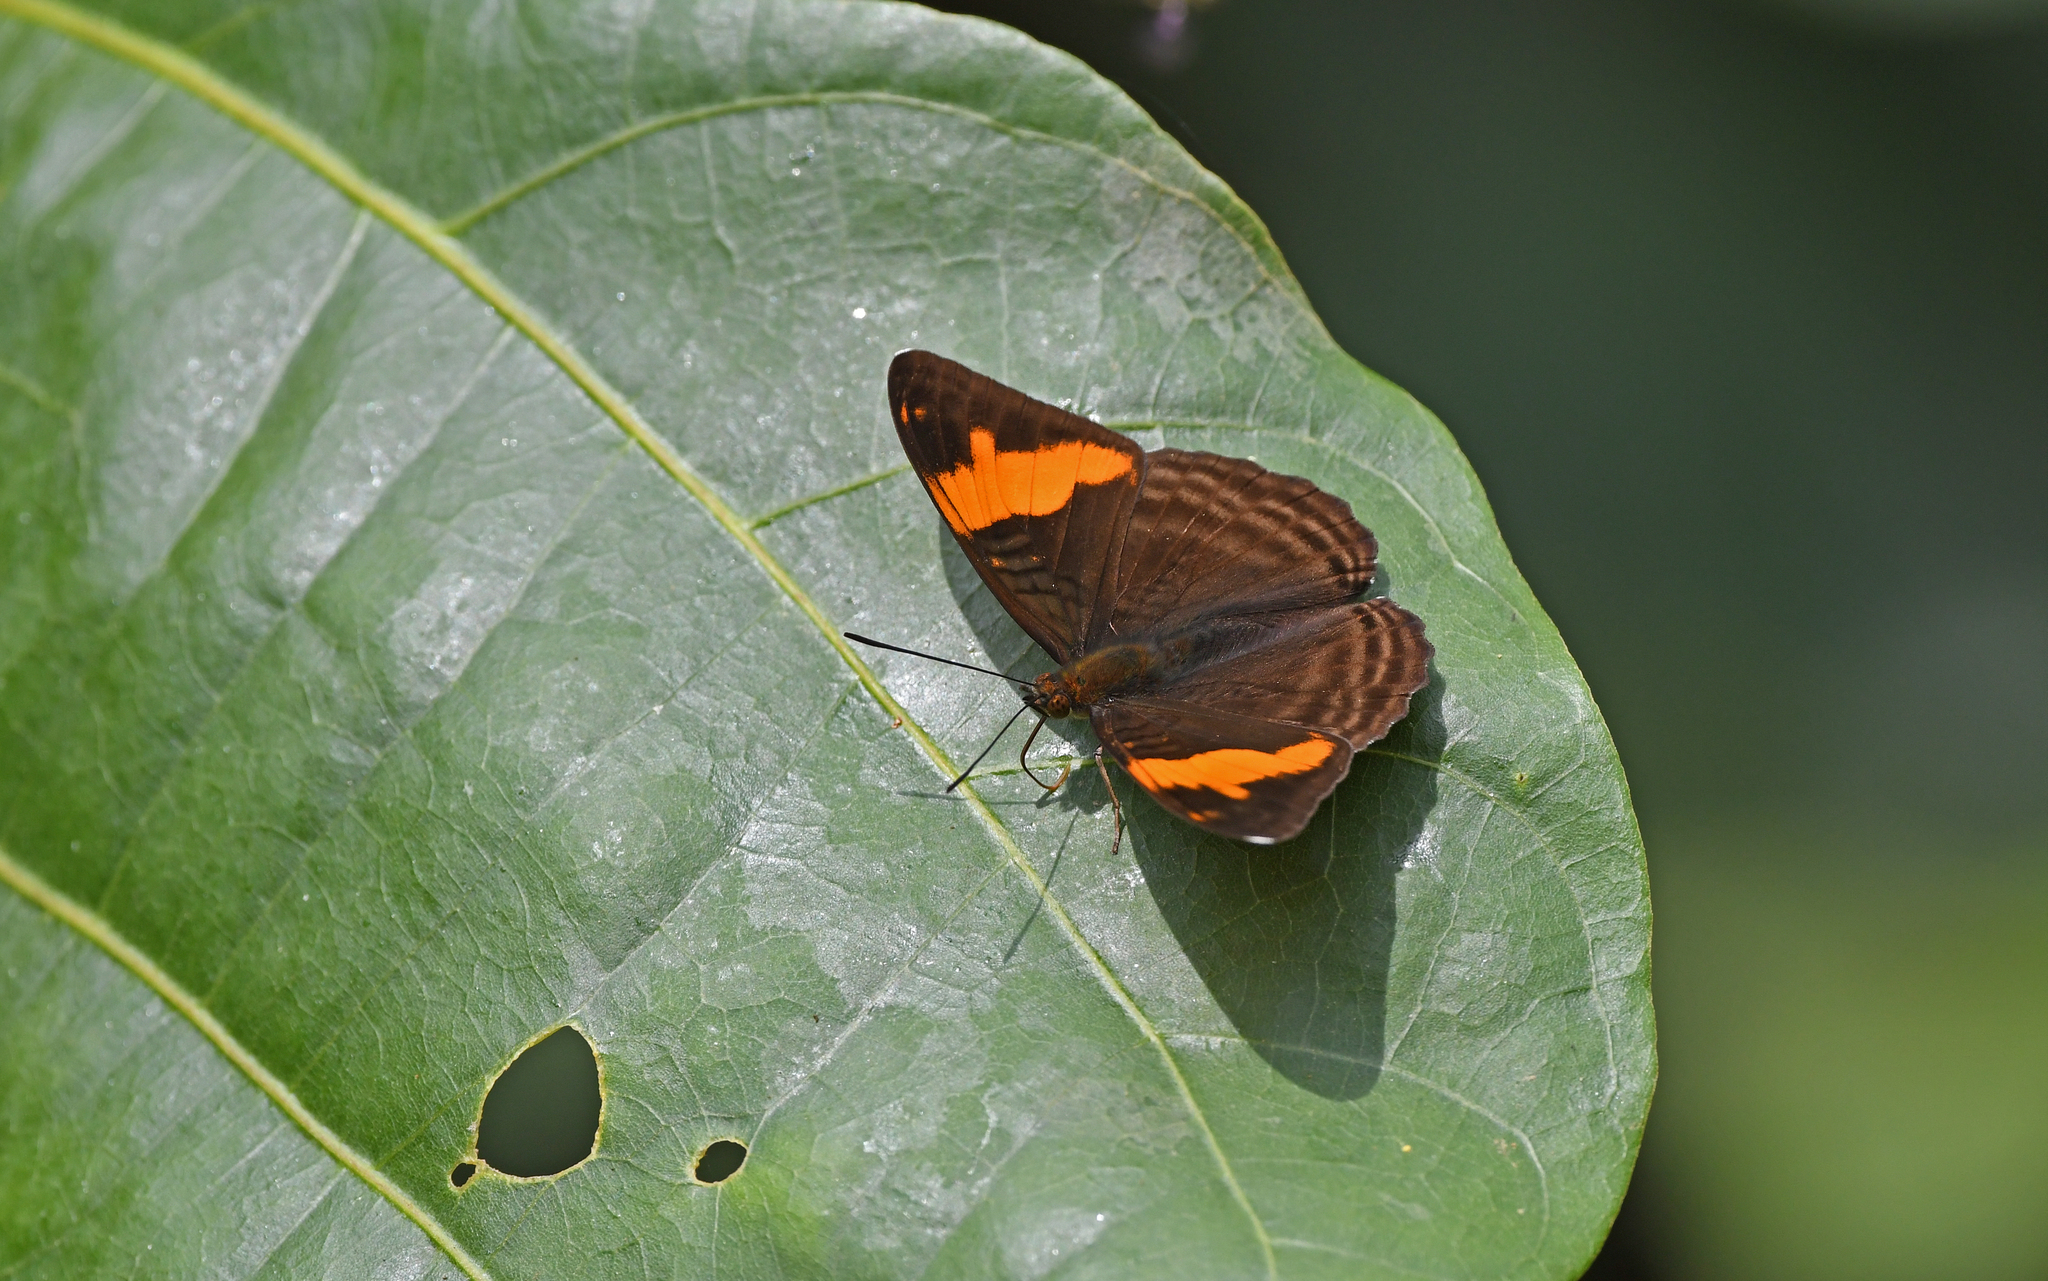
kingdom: Animalia
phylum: Arthropoda
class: Insecta
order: Lepidoptera
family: Nymphalidae
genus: Limenitis
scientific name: Limenitis zina
